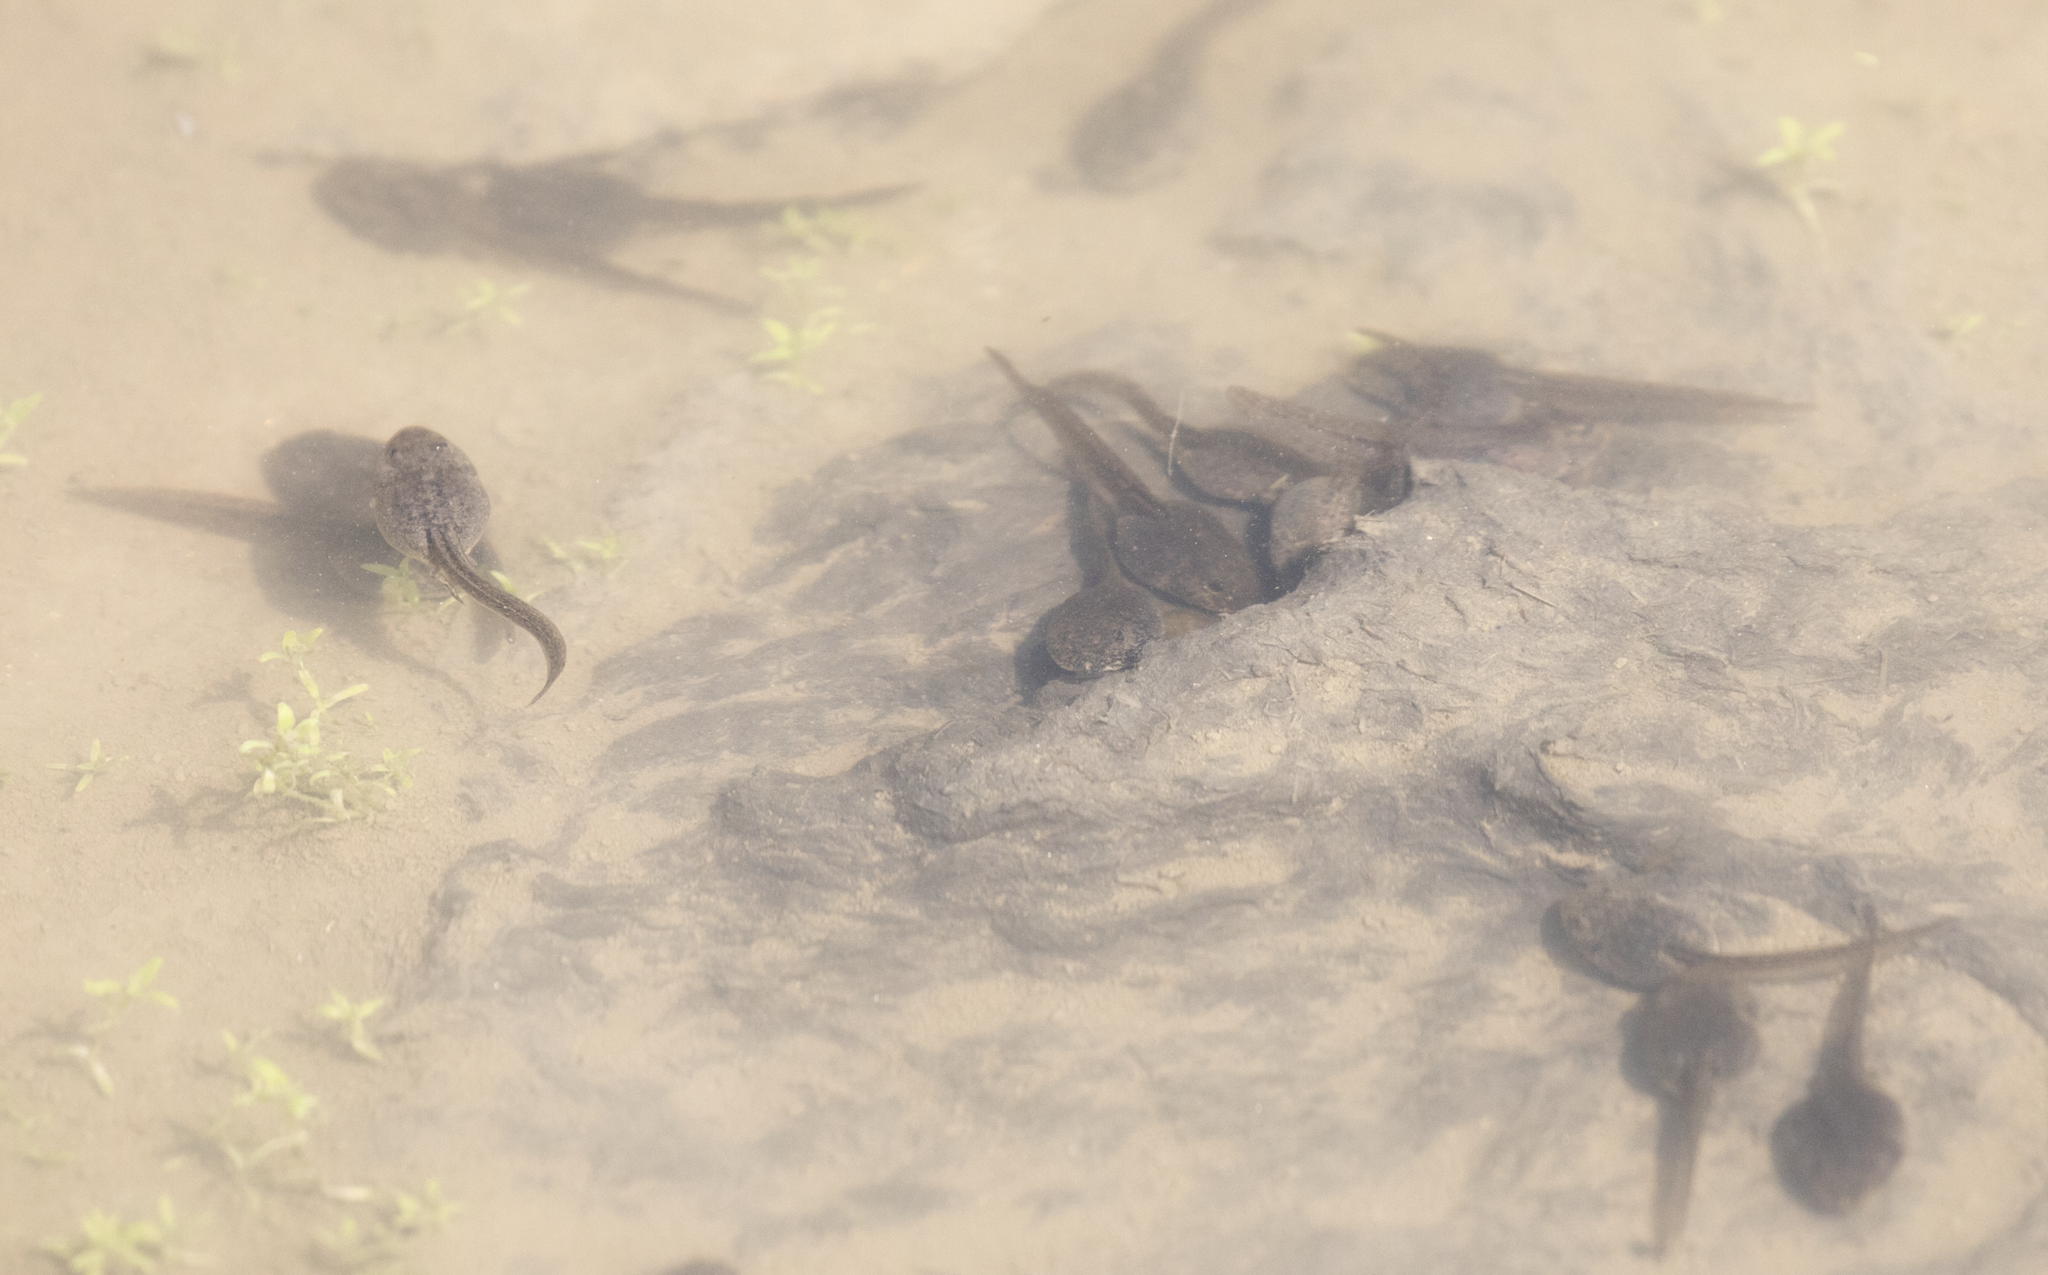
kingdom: Animalia
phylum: Chordata
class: Amphibia
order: Anura
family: Ranidae
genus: Rana
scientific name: Rana temporaria
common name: Common frog
